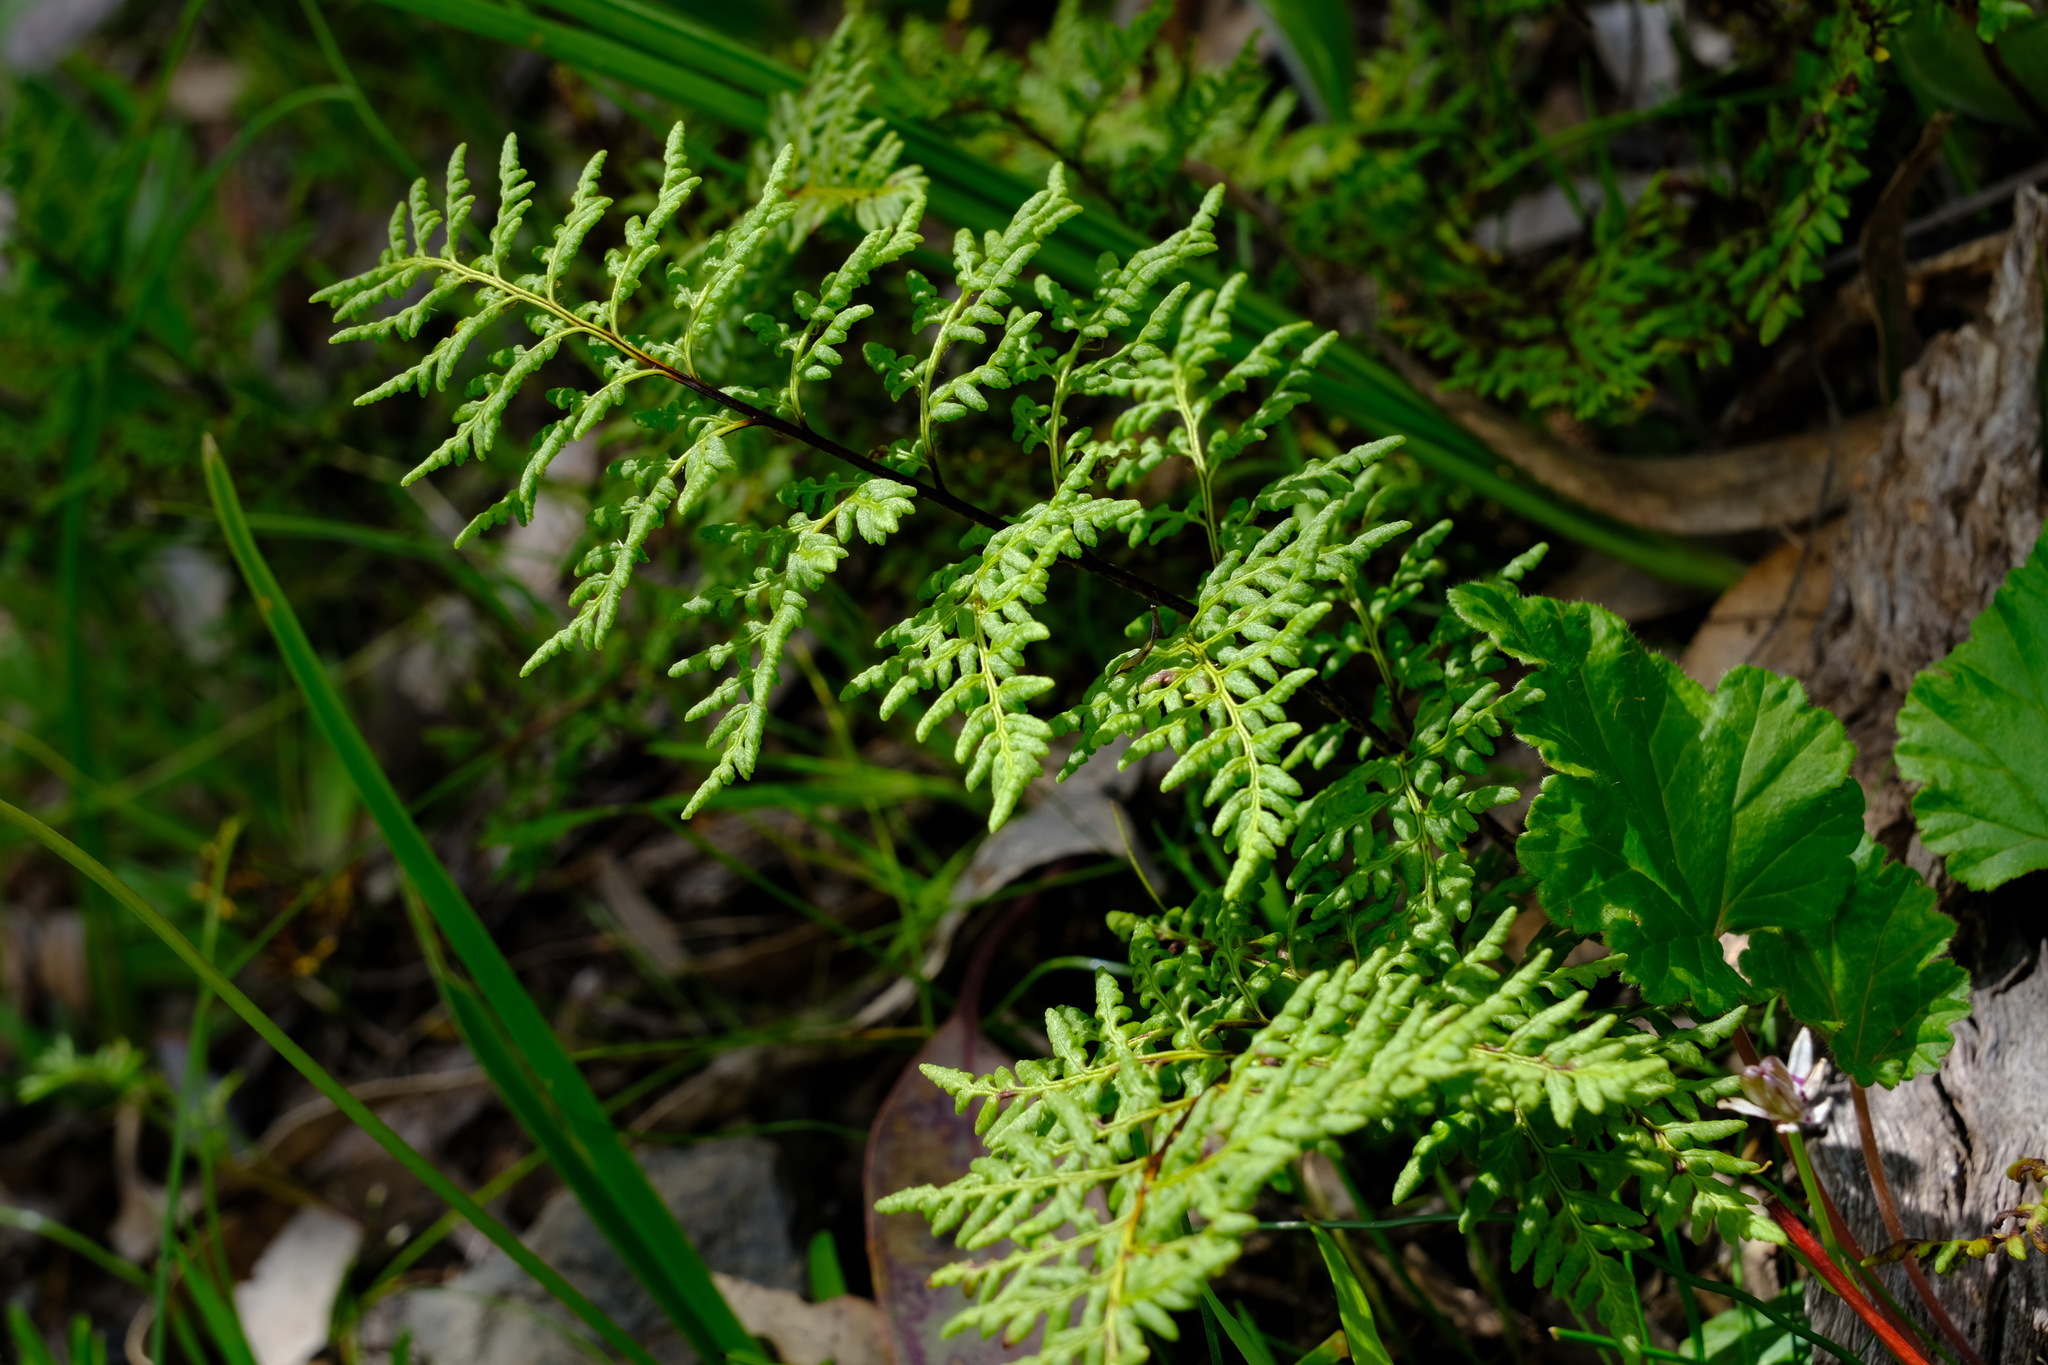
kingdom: Plantae
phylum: Tracheophyta
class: Polypodiopsida
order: Polypodiales
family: Pteridaceae
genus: Cheilanthes
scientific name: Cheilanthes austrotenuifolia
